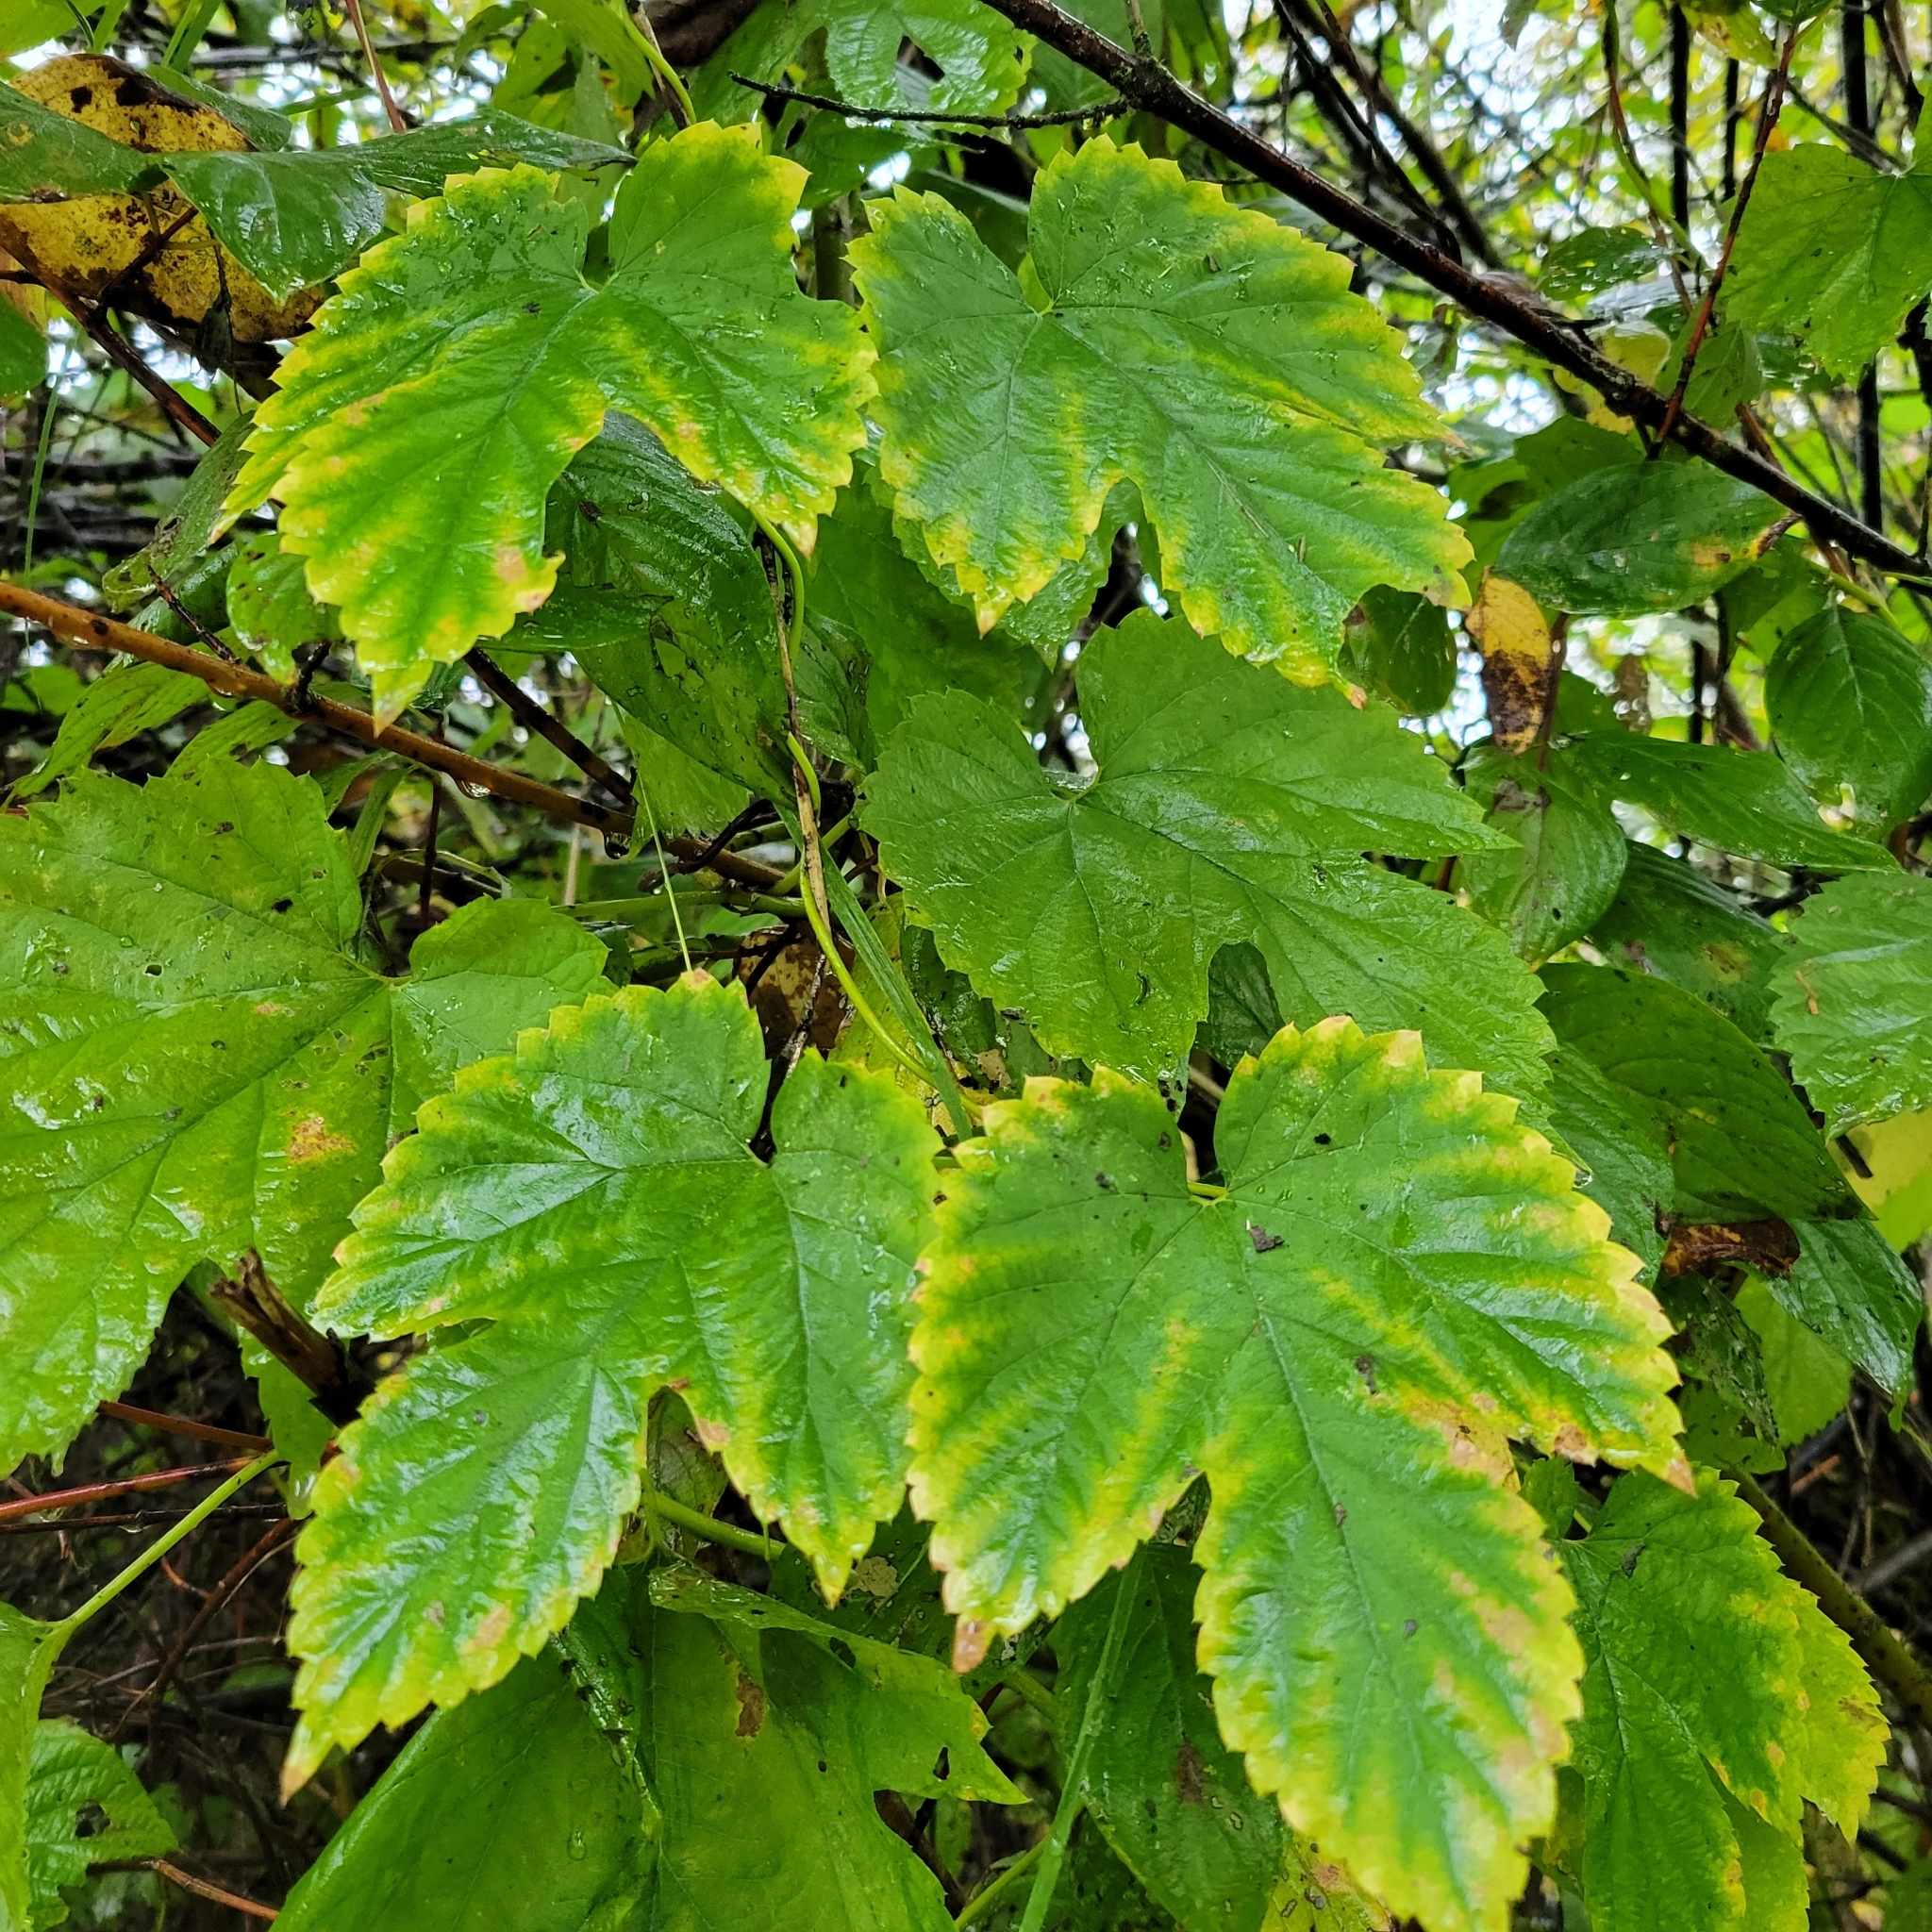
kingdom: Plantae
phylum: Tracheophyta
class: Magnoliopsida
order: Rosales
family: Cannabaceae
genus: Humulus
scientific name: Humulus lupulus
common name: Hop
